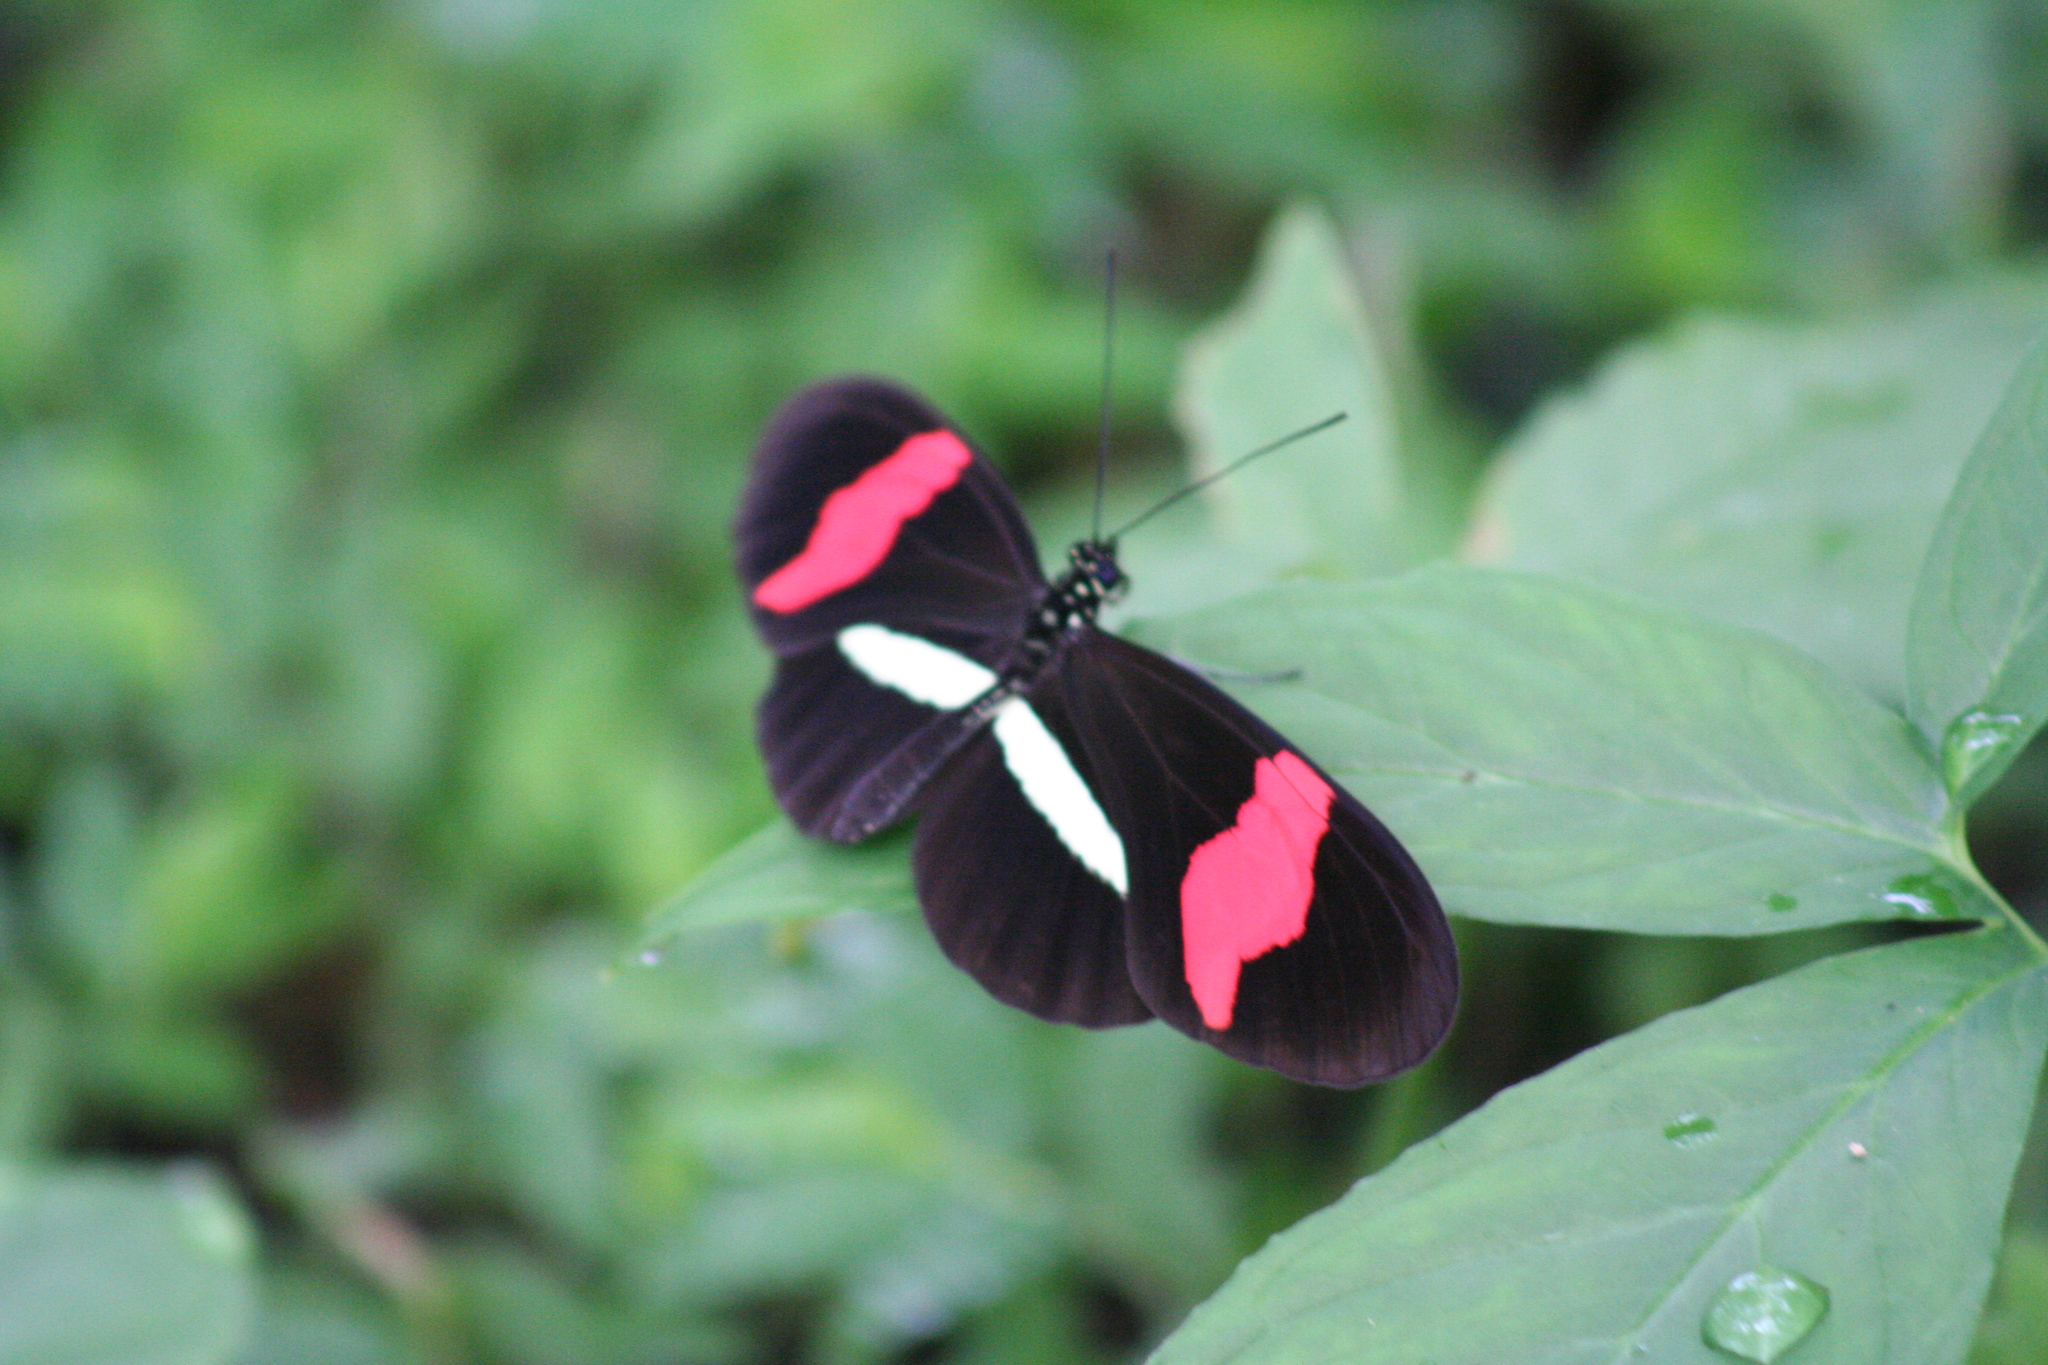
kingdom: Animalia
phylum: Arthropoda
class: Insecta
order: Lepidoptera
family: Nymphalidae
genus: Heliconius
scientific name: Heliconius erato
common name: Common patch longwing
